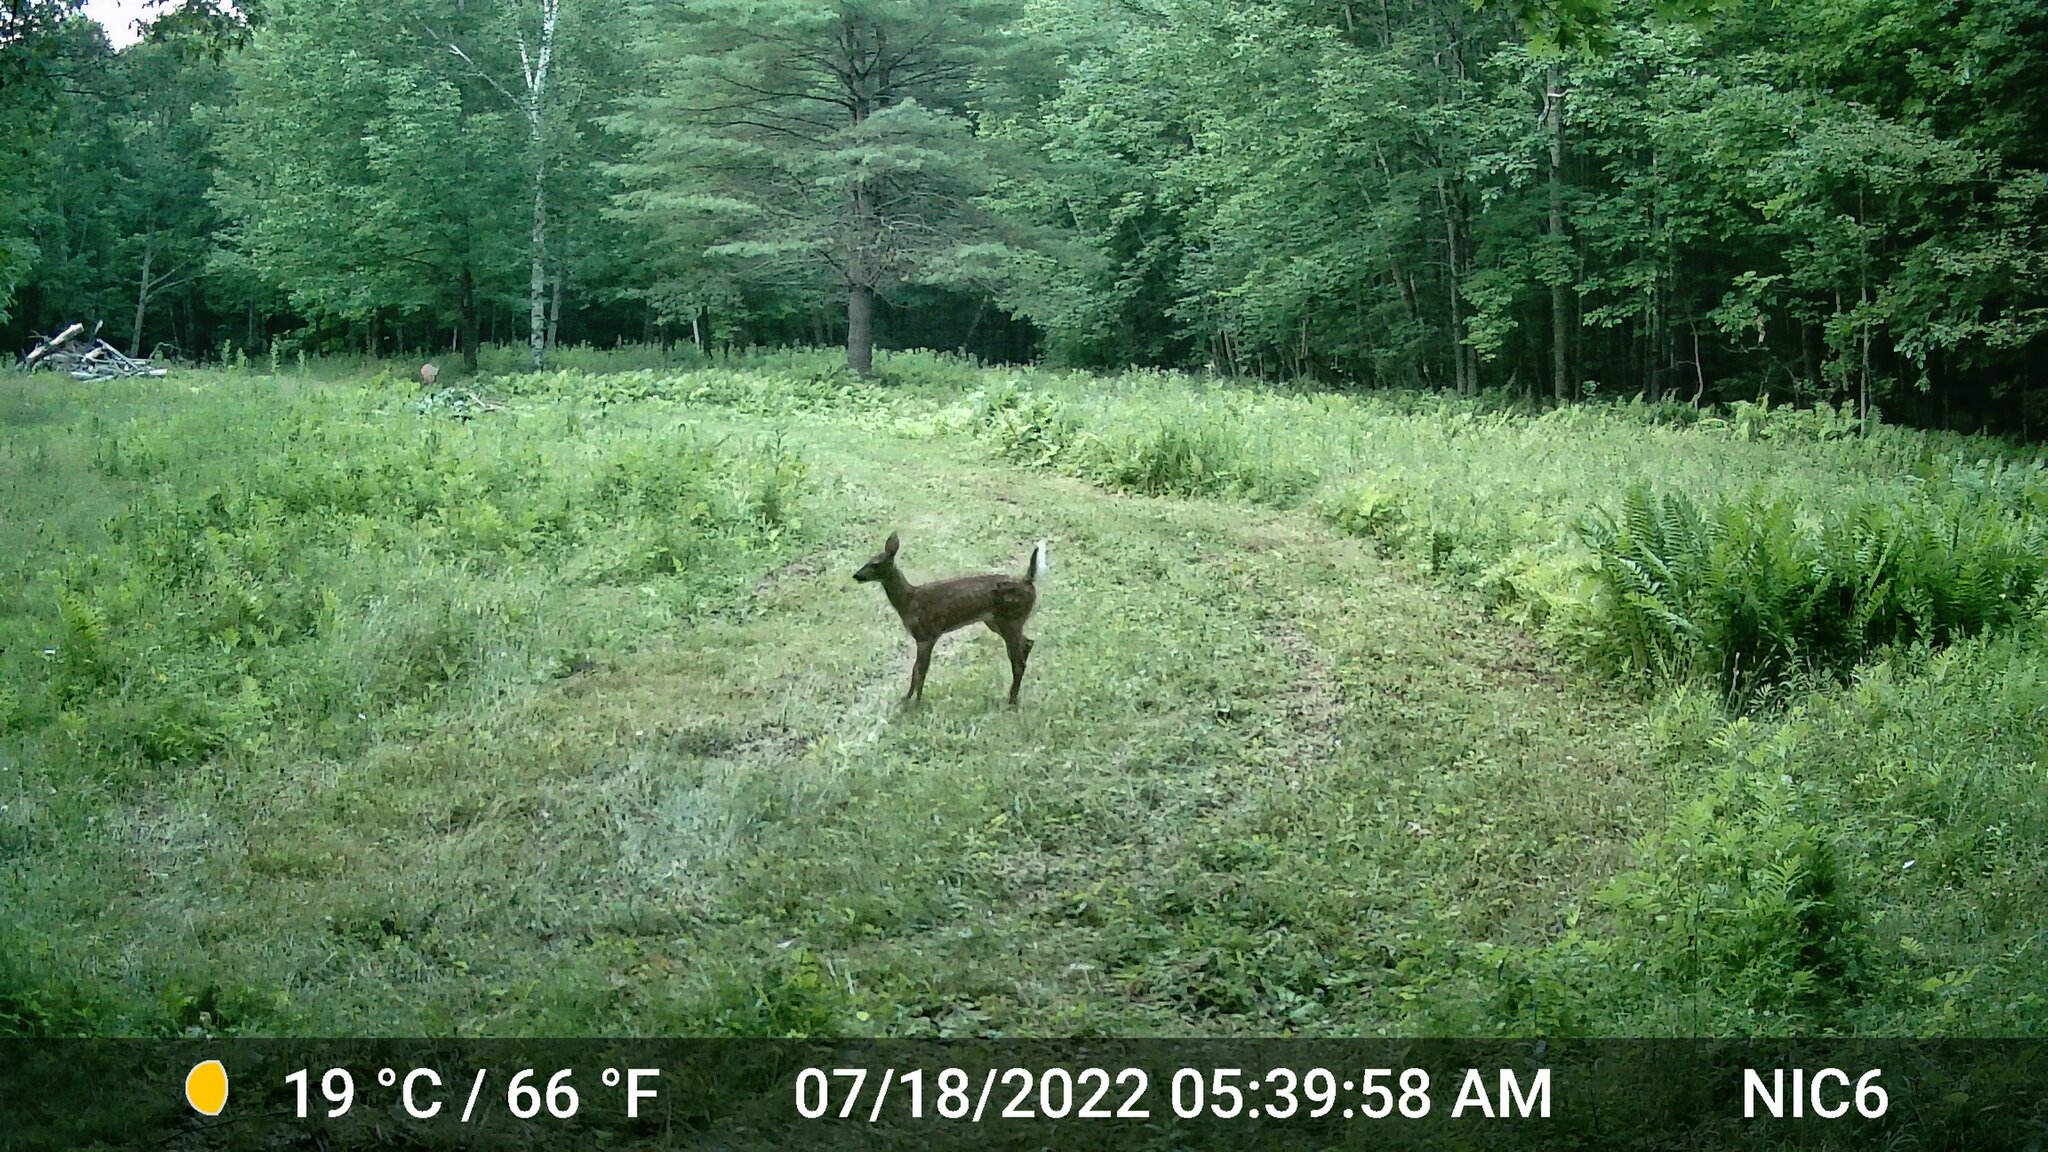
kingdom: Animalia
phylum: Chordata
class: Mammalia
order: Artiodactyla
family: Cervidae
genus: Odocoileus
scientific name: Odocoileus virginianus
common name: White-tailed deer
